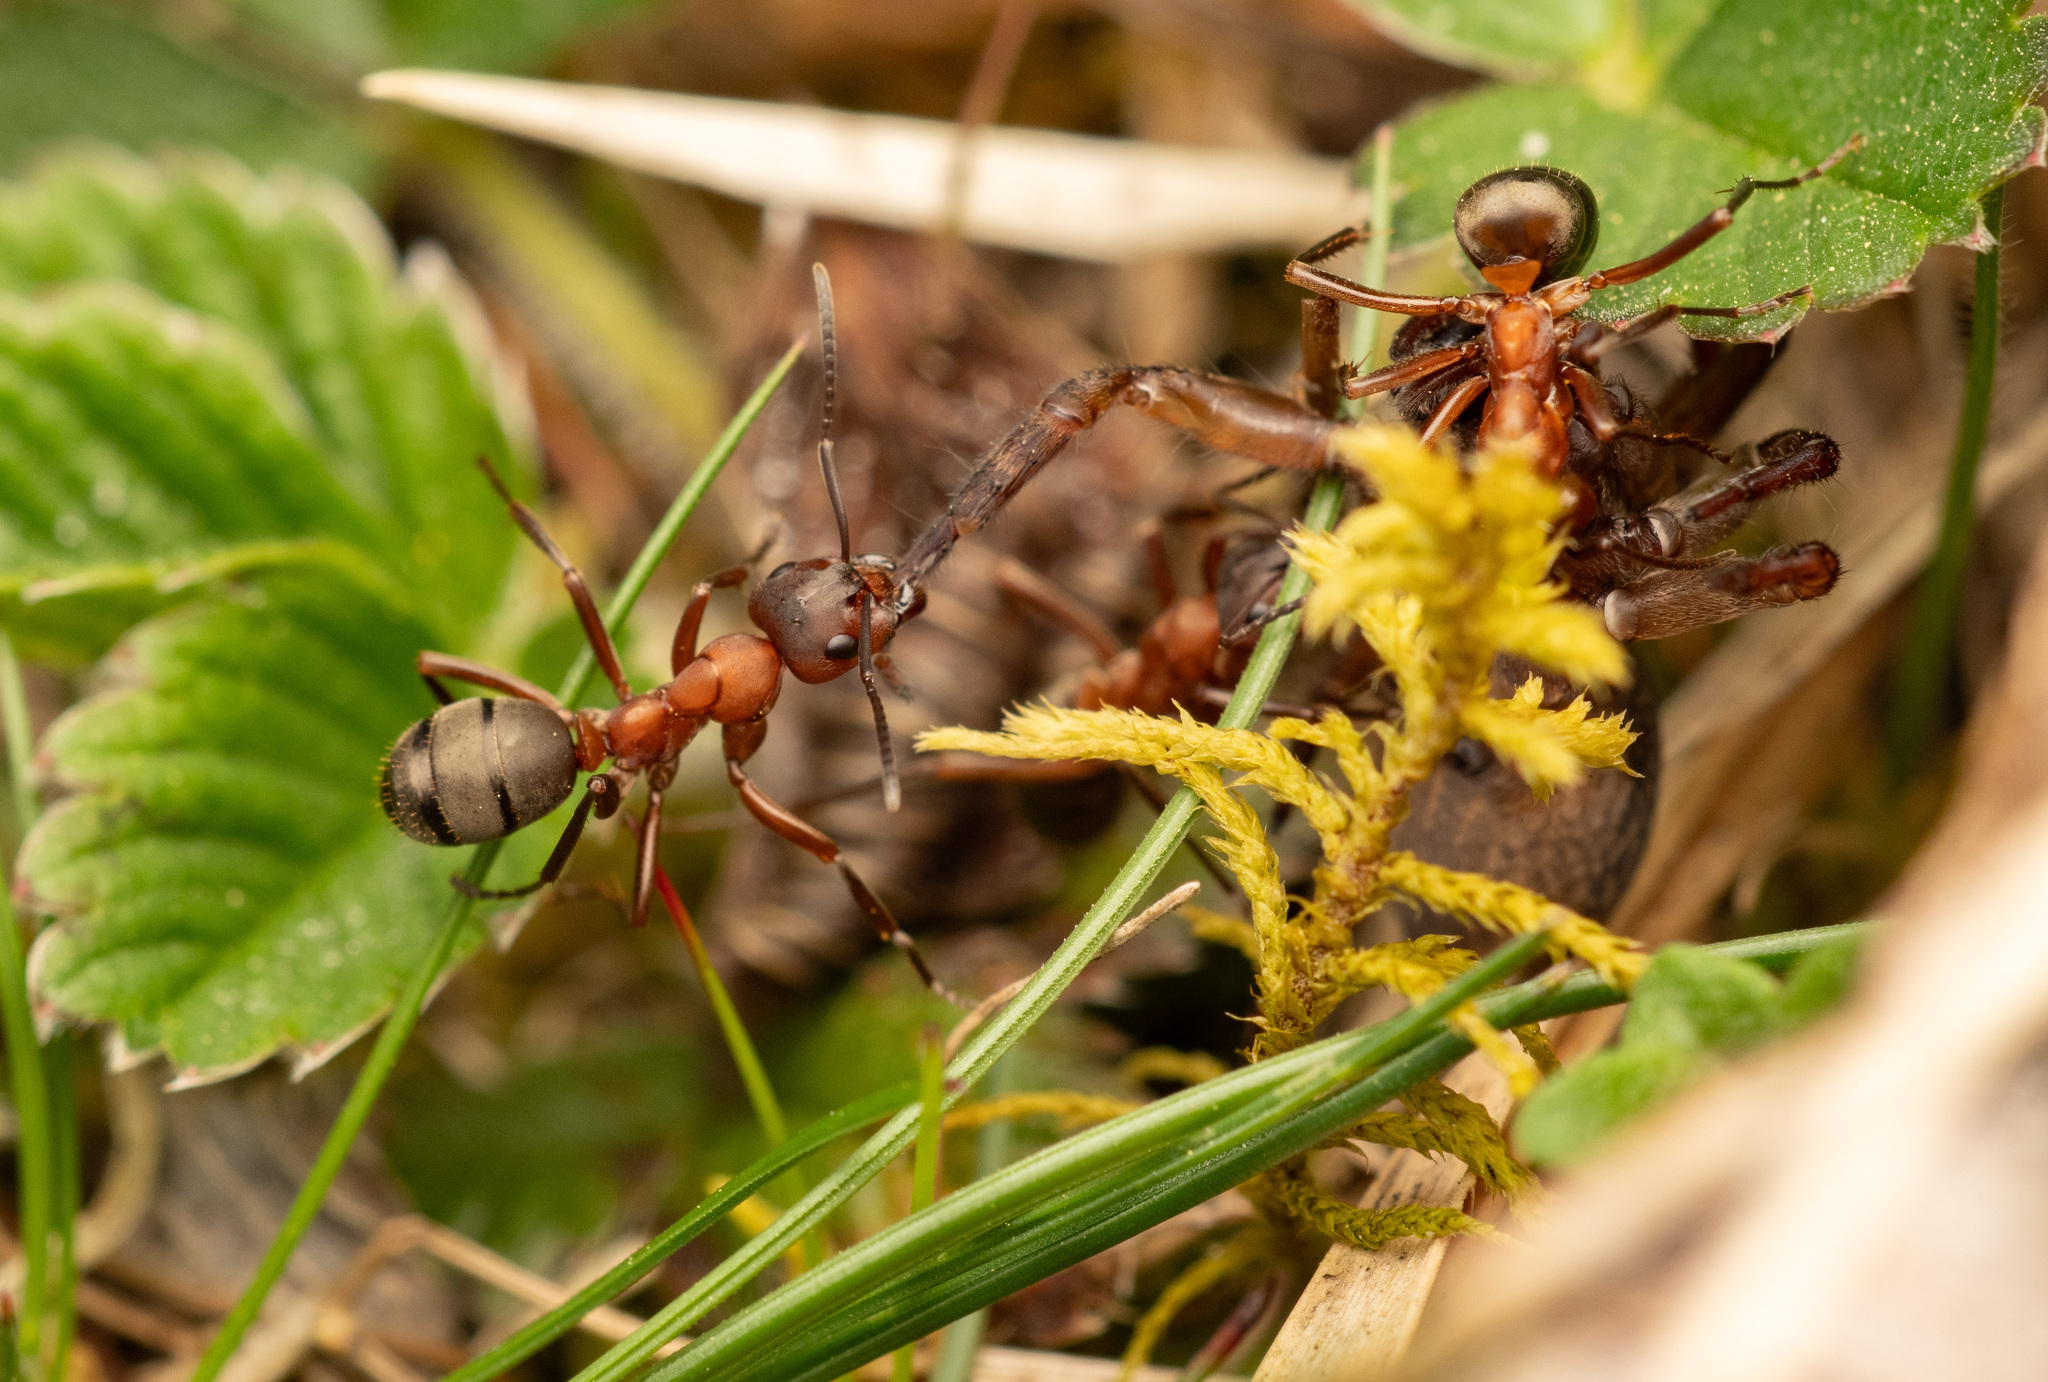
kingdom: Animalia
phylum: Arthropoda
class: Insecta
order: Hymenoptera
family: Formicidae
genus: Formica
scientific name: Formica sanguinea
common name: Blood-red ant
